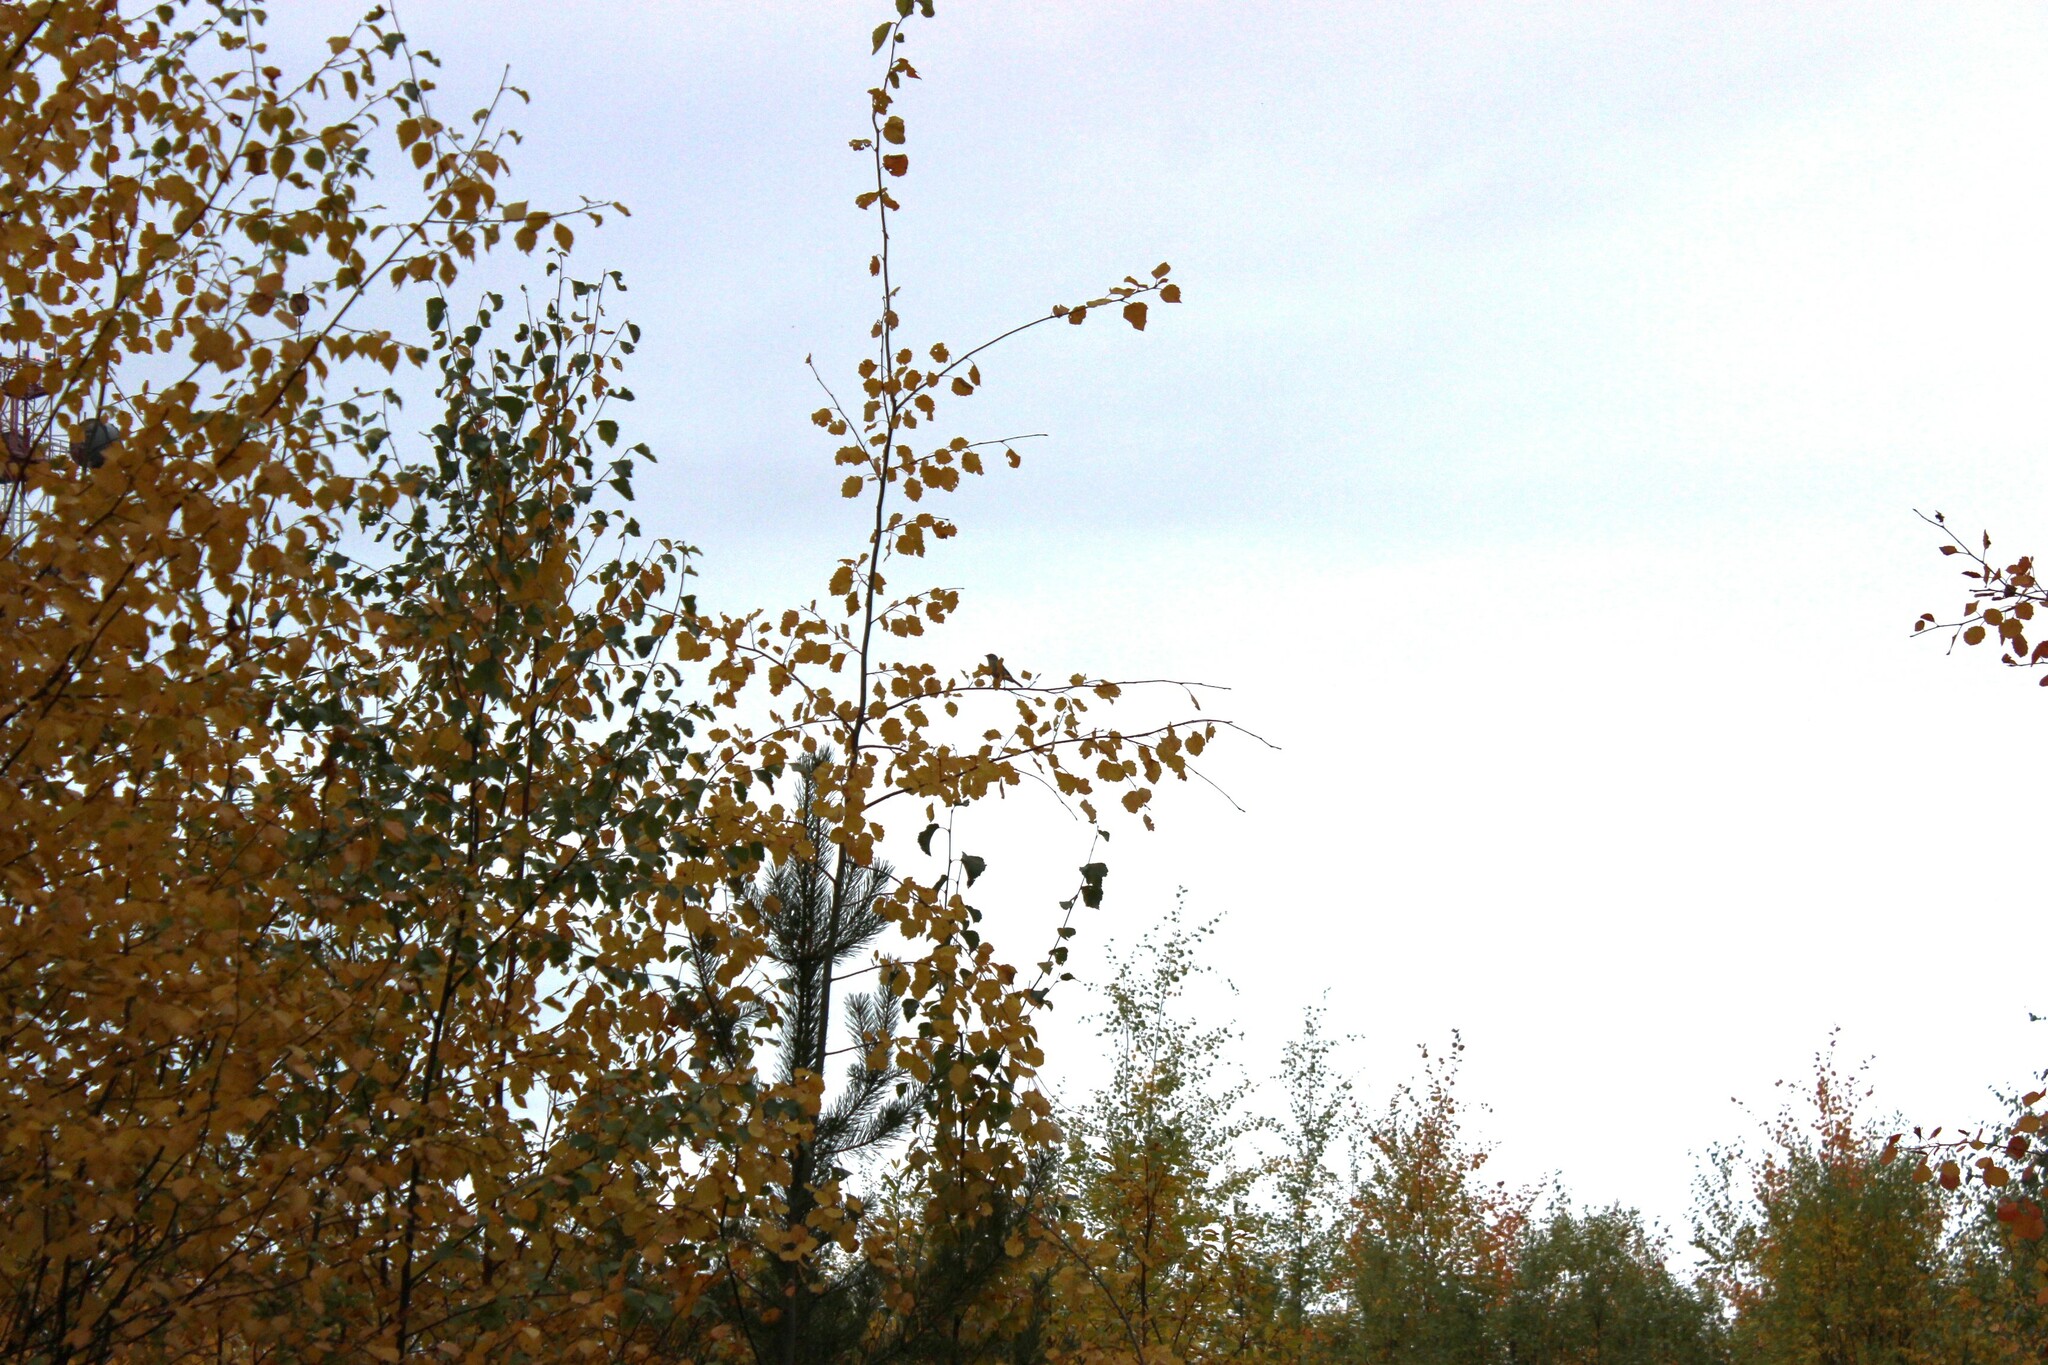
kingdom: Plantae
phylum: Tracheophyta
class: Magnoliopsida
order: Fagales
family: Betulaceae
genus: Betula
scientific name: Betula pubescens
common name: Downy birch
